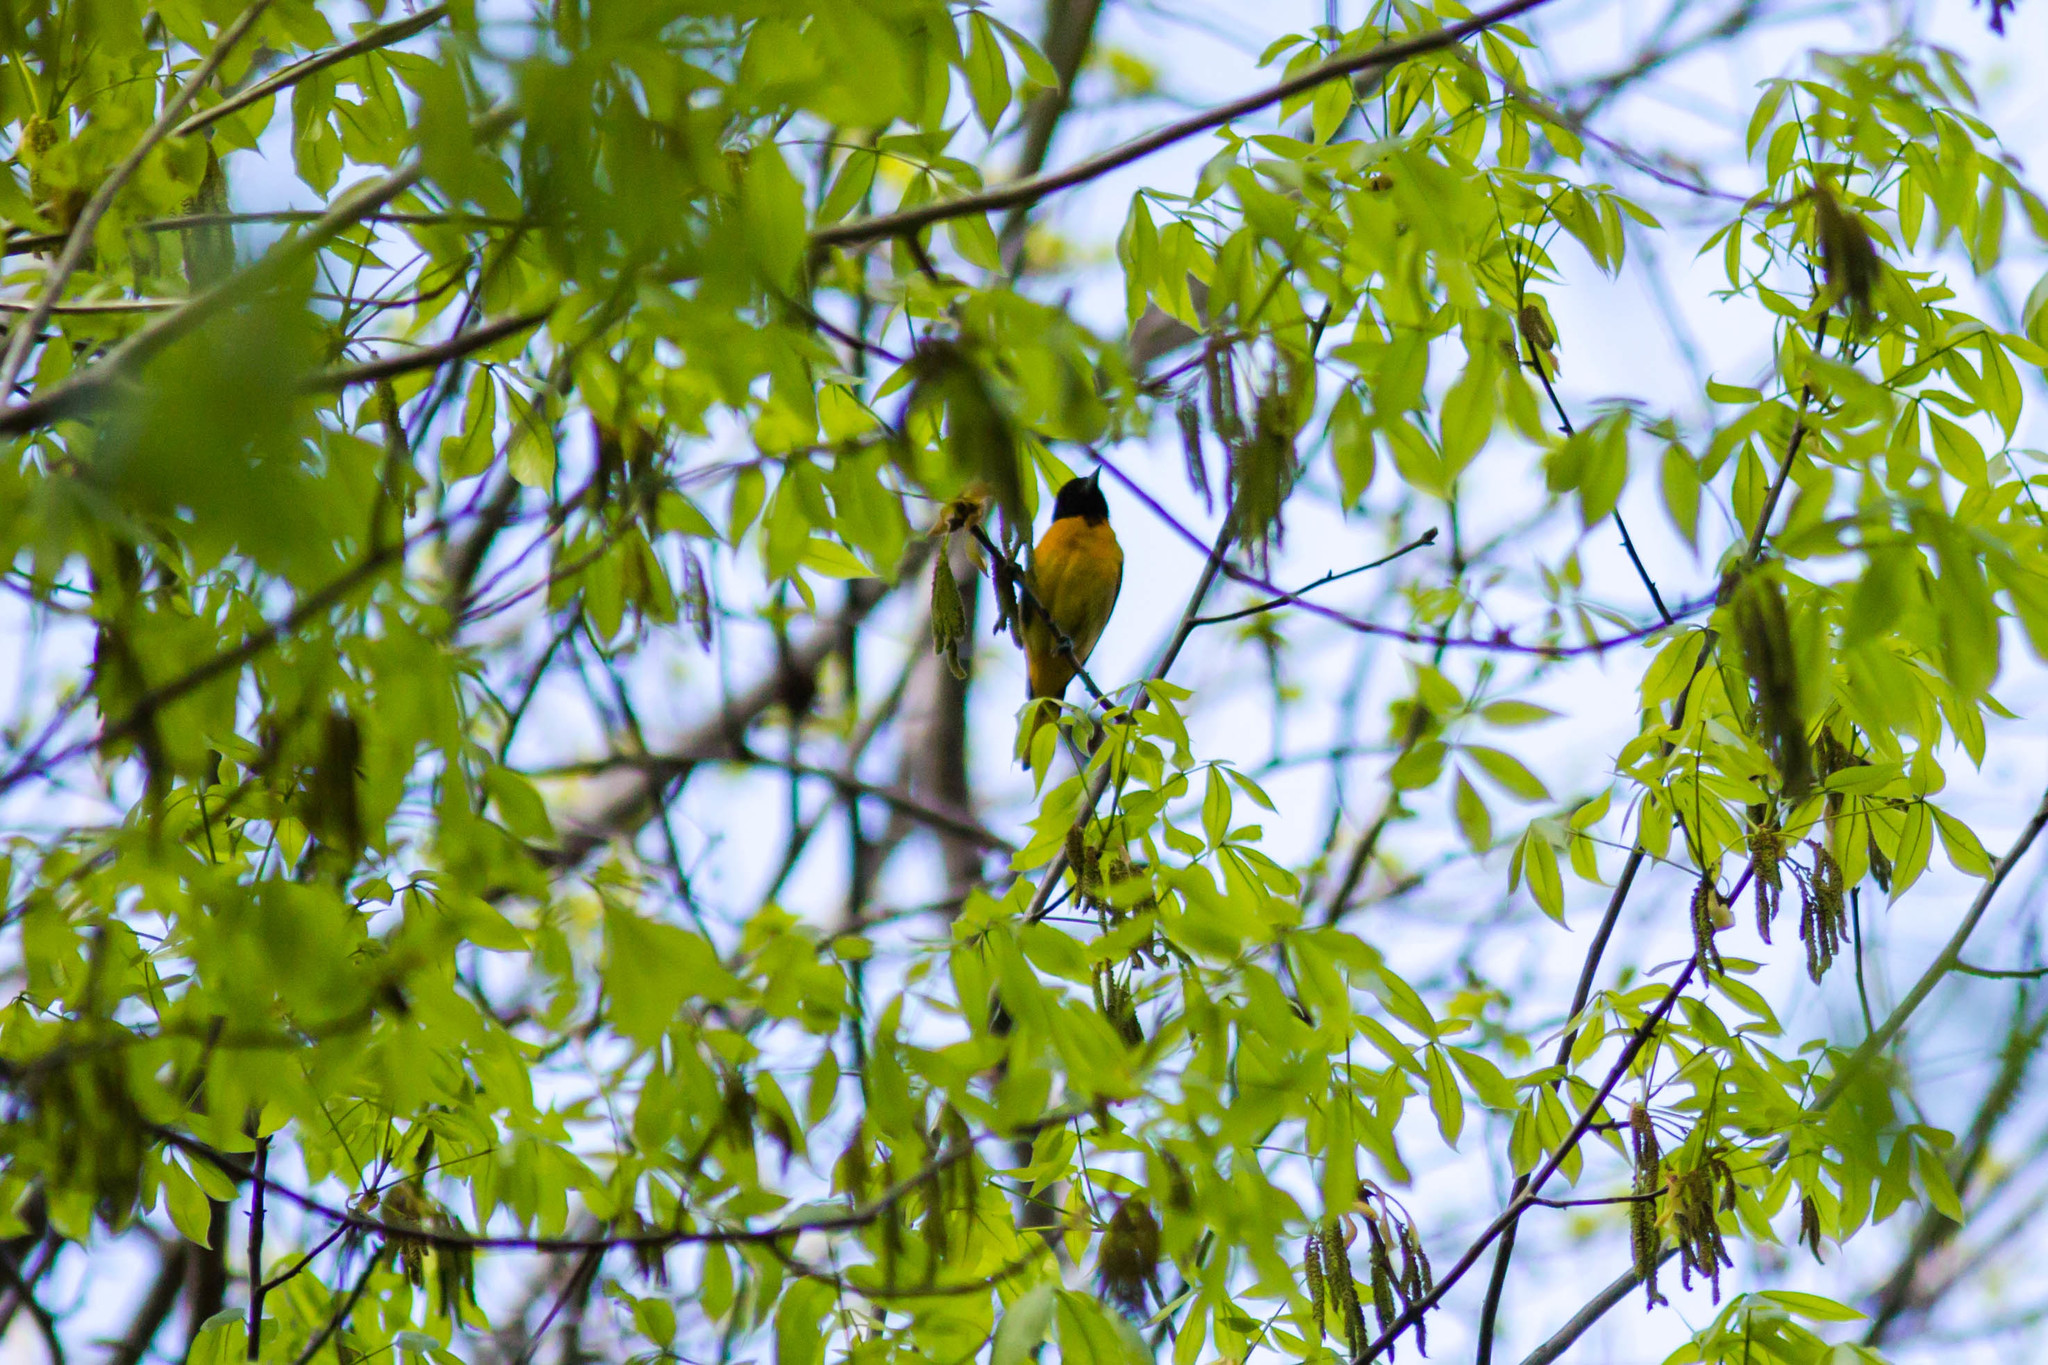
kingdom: Animalia
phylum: Chordata
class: Aves
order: Passeriformes
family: Icteridae
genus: Icterus
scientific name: Icterus galbula
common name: Baltimore oriole
